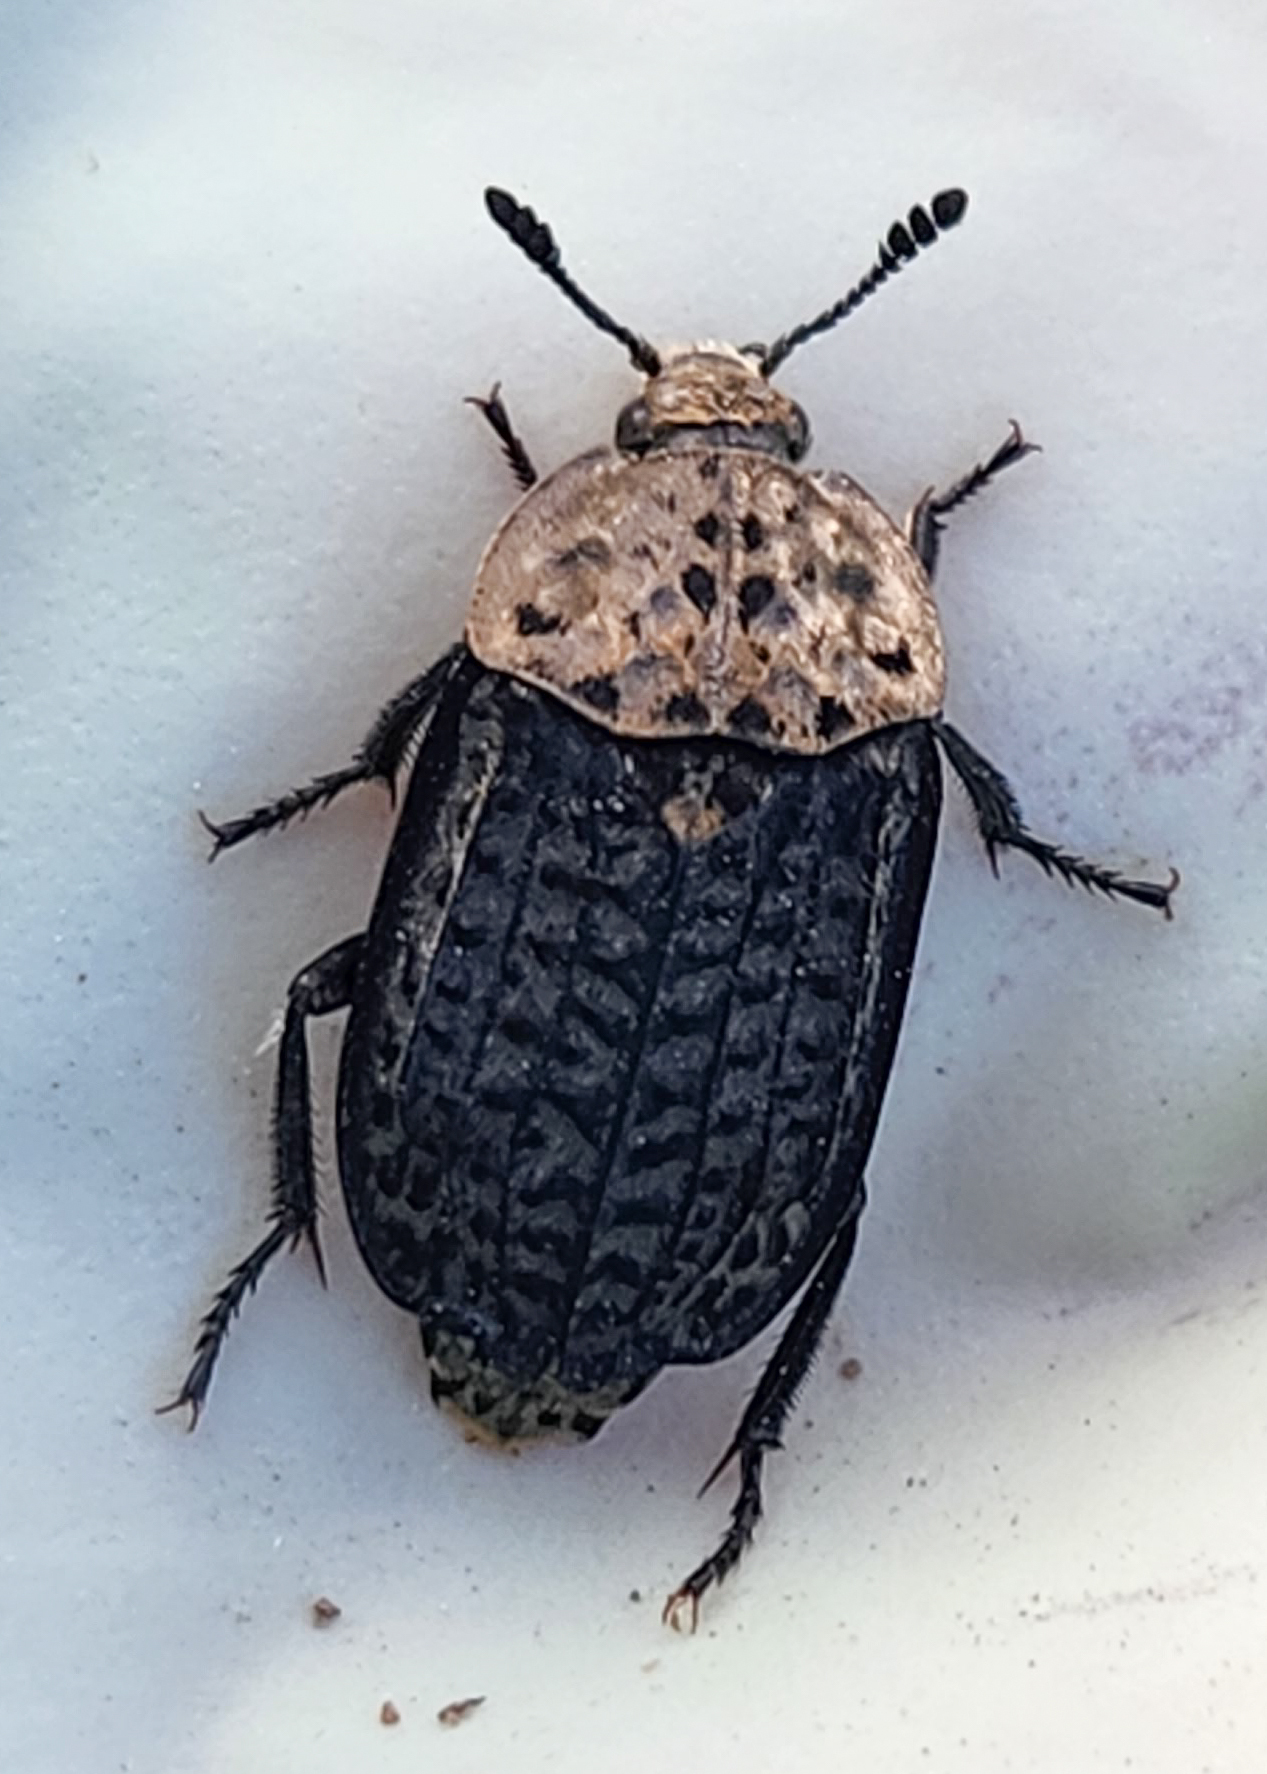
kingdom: Animalia
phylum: Arthropoda
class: Insecta
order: Coleoptera
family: Staphylinidae
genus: Thanatophilus
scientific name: Thanatophilus lapponicus
